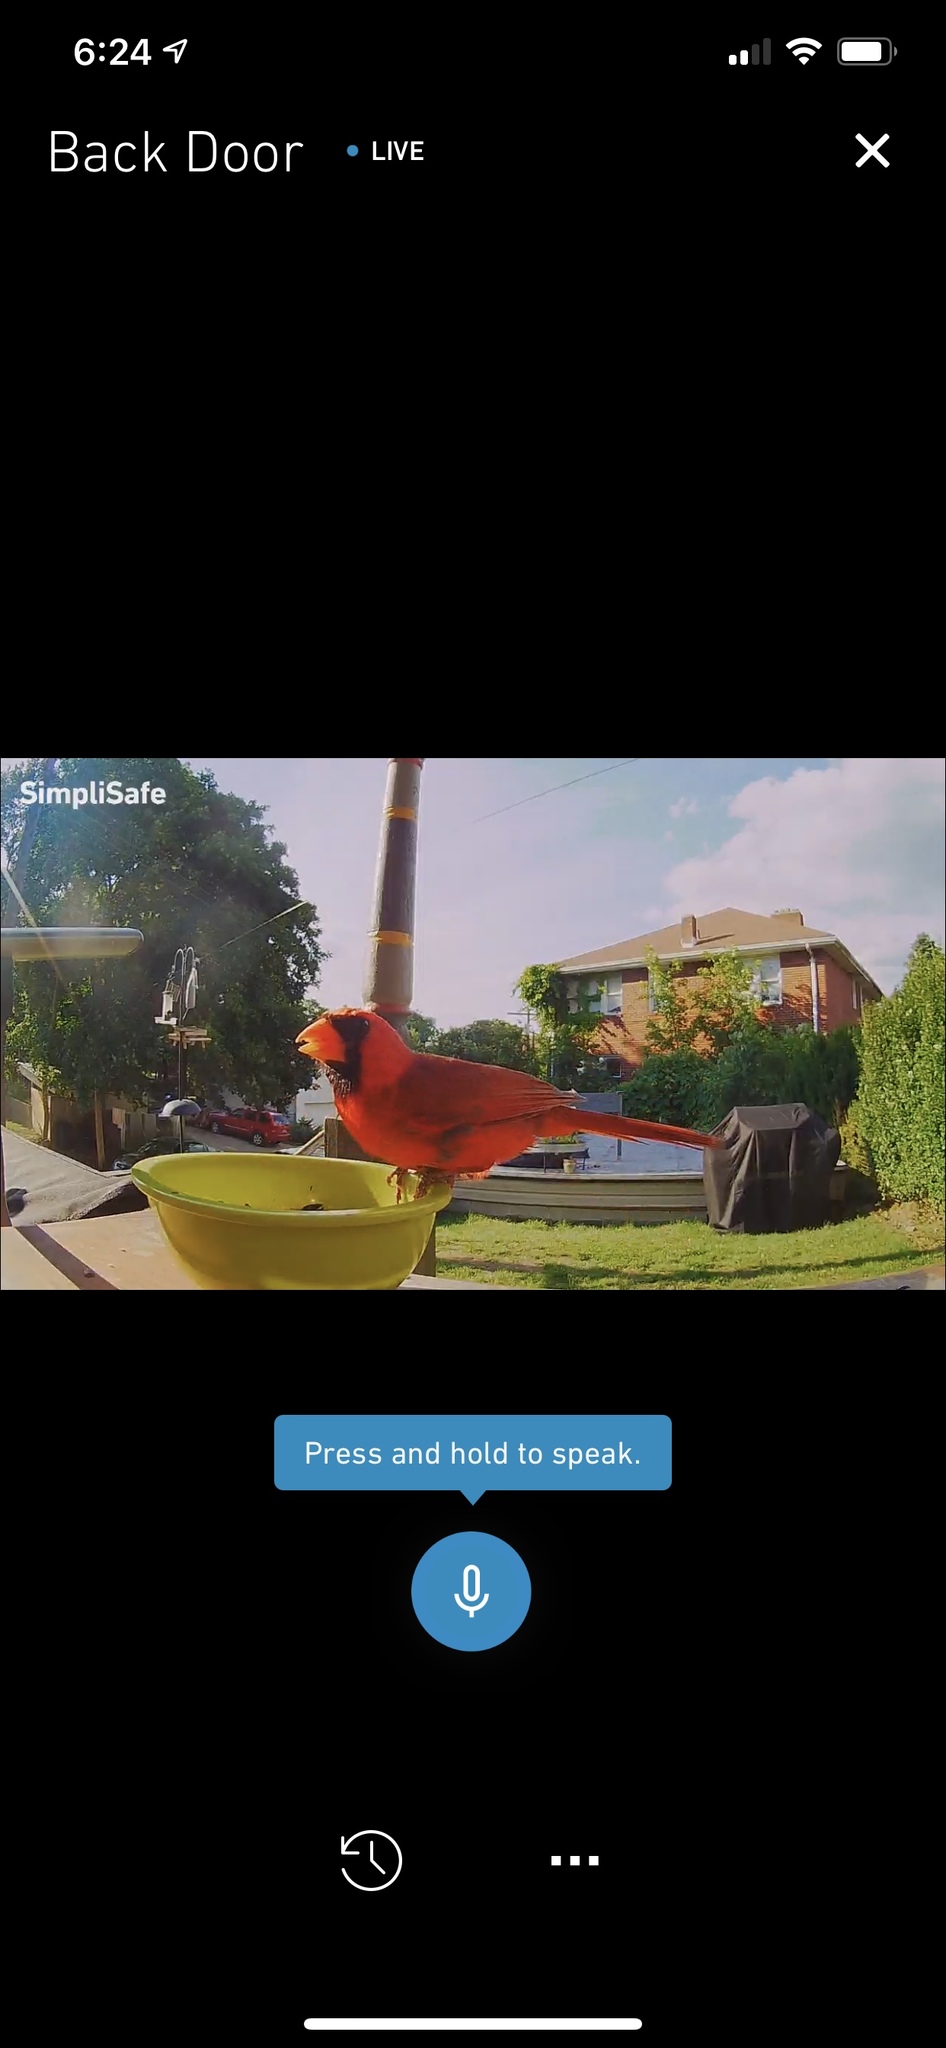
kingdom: Animalia
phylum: Chordata
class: Aves
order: Passeriformes
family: Cardinalidae
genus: Cardinalis
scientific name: Cardinalis cardinalis
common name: Northern cardinal
